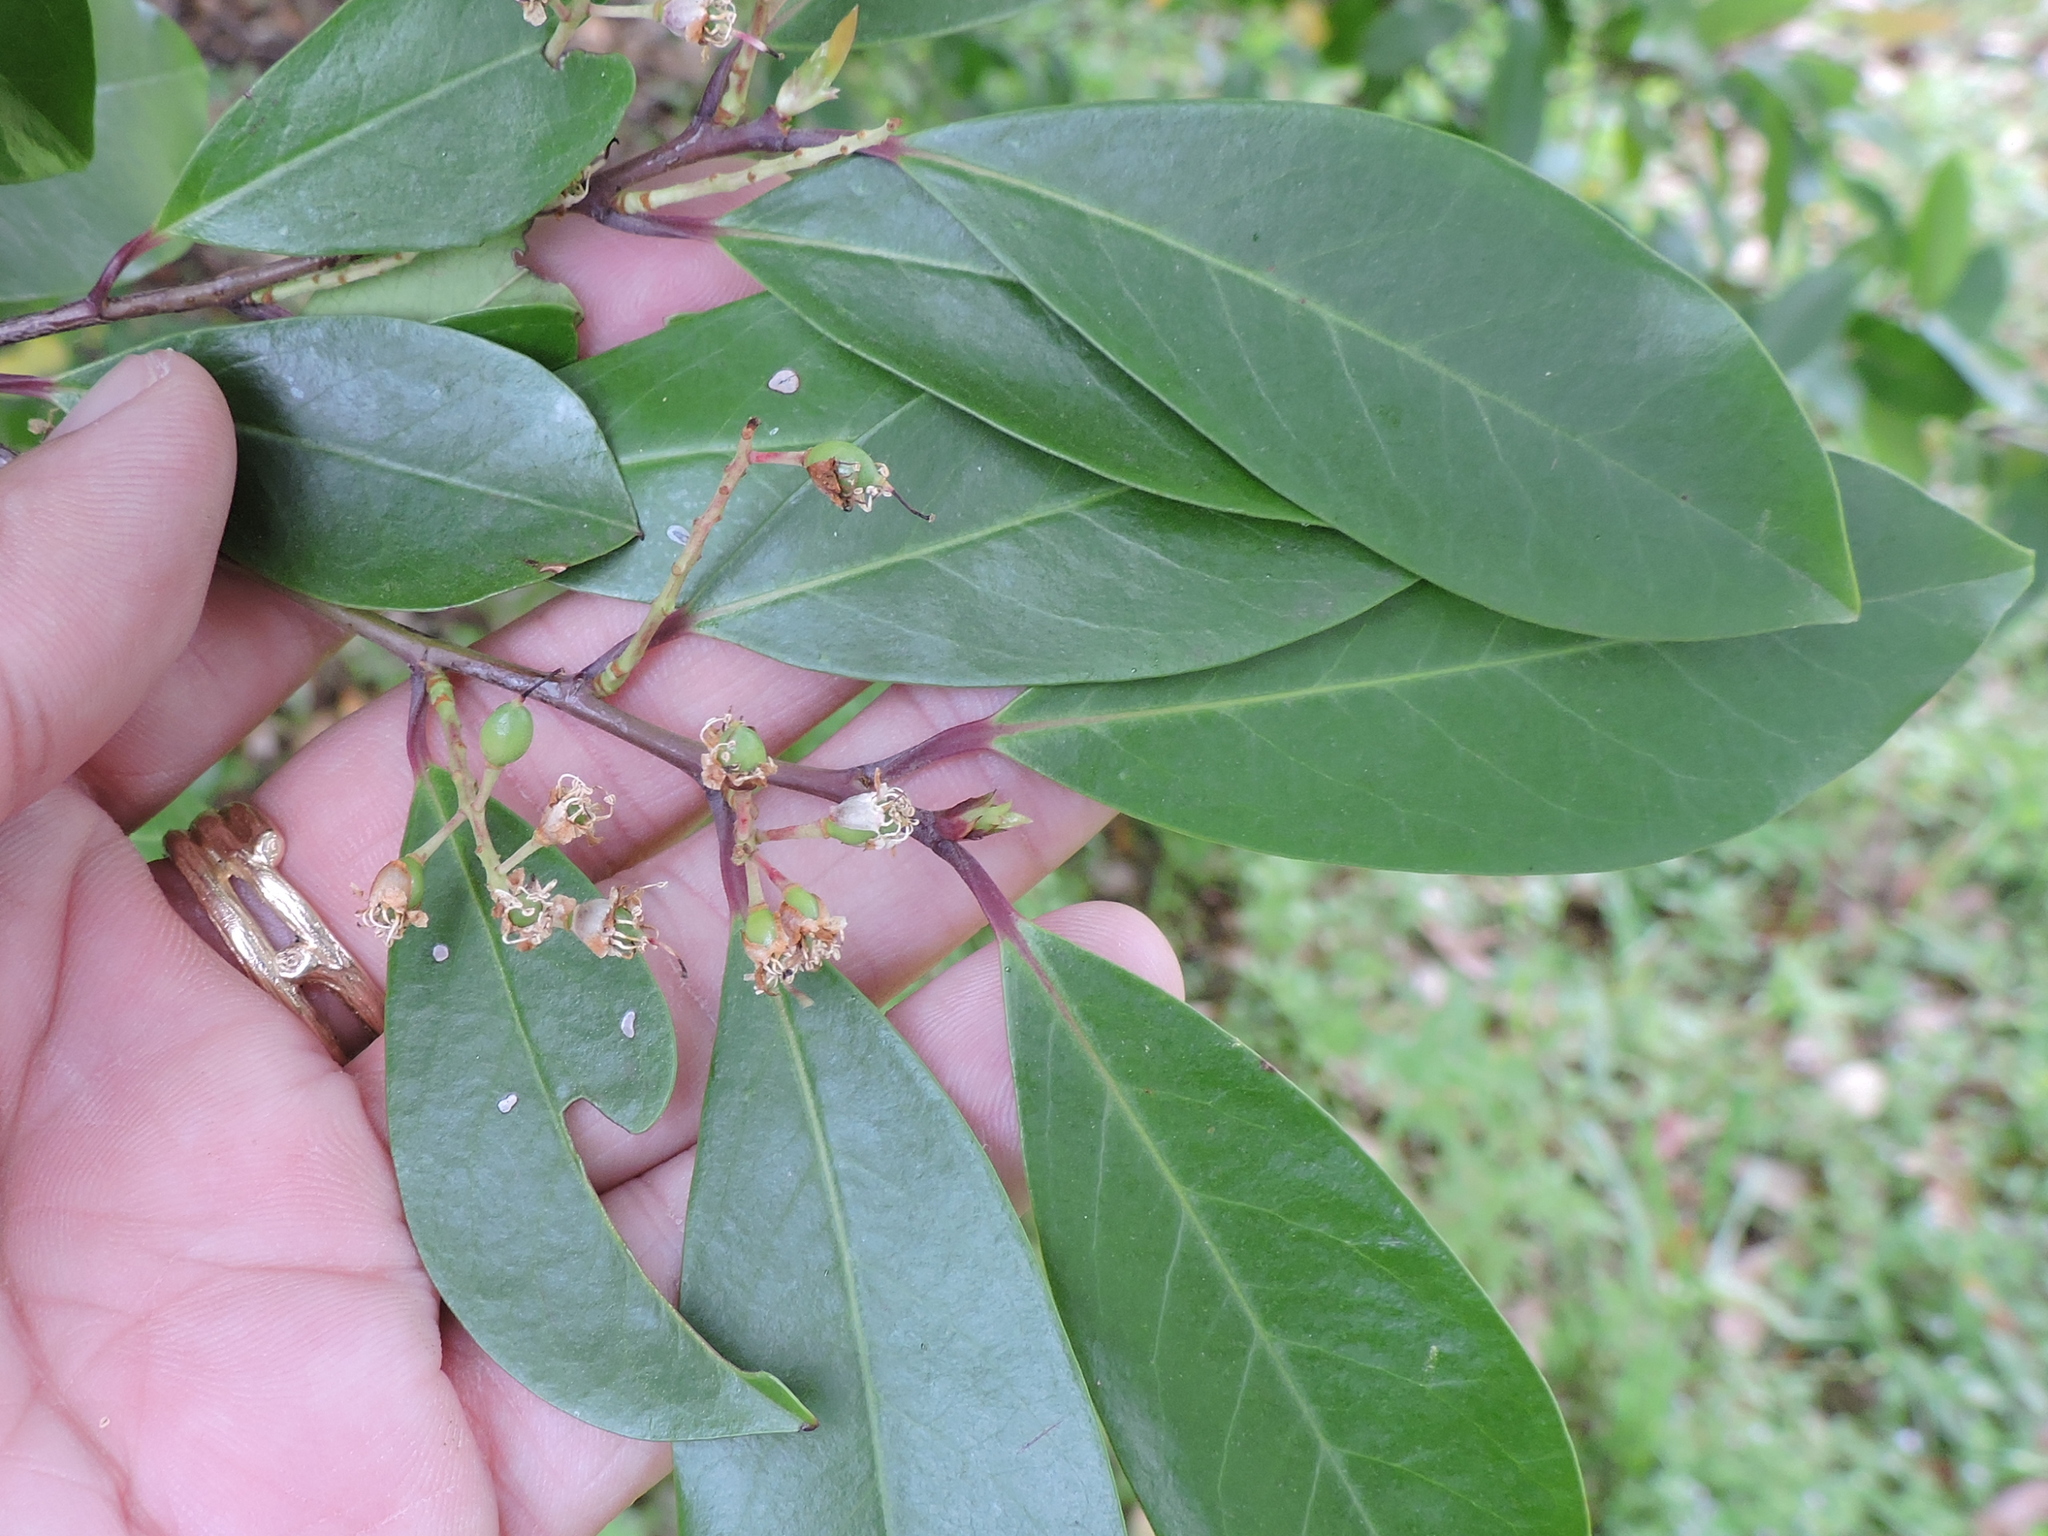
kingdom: Plantae
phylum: Tracheophyta
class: Magnoliopsida
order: Rosales
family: Rosaceae
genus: Prunus
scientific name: Prunus caroliniana
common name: Carolina laurel cherry
